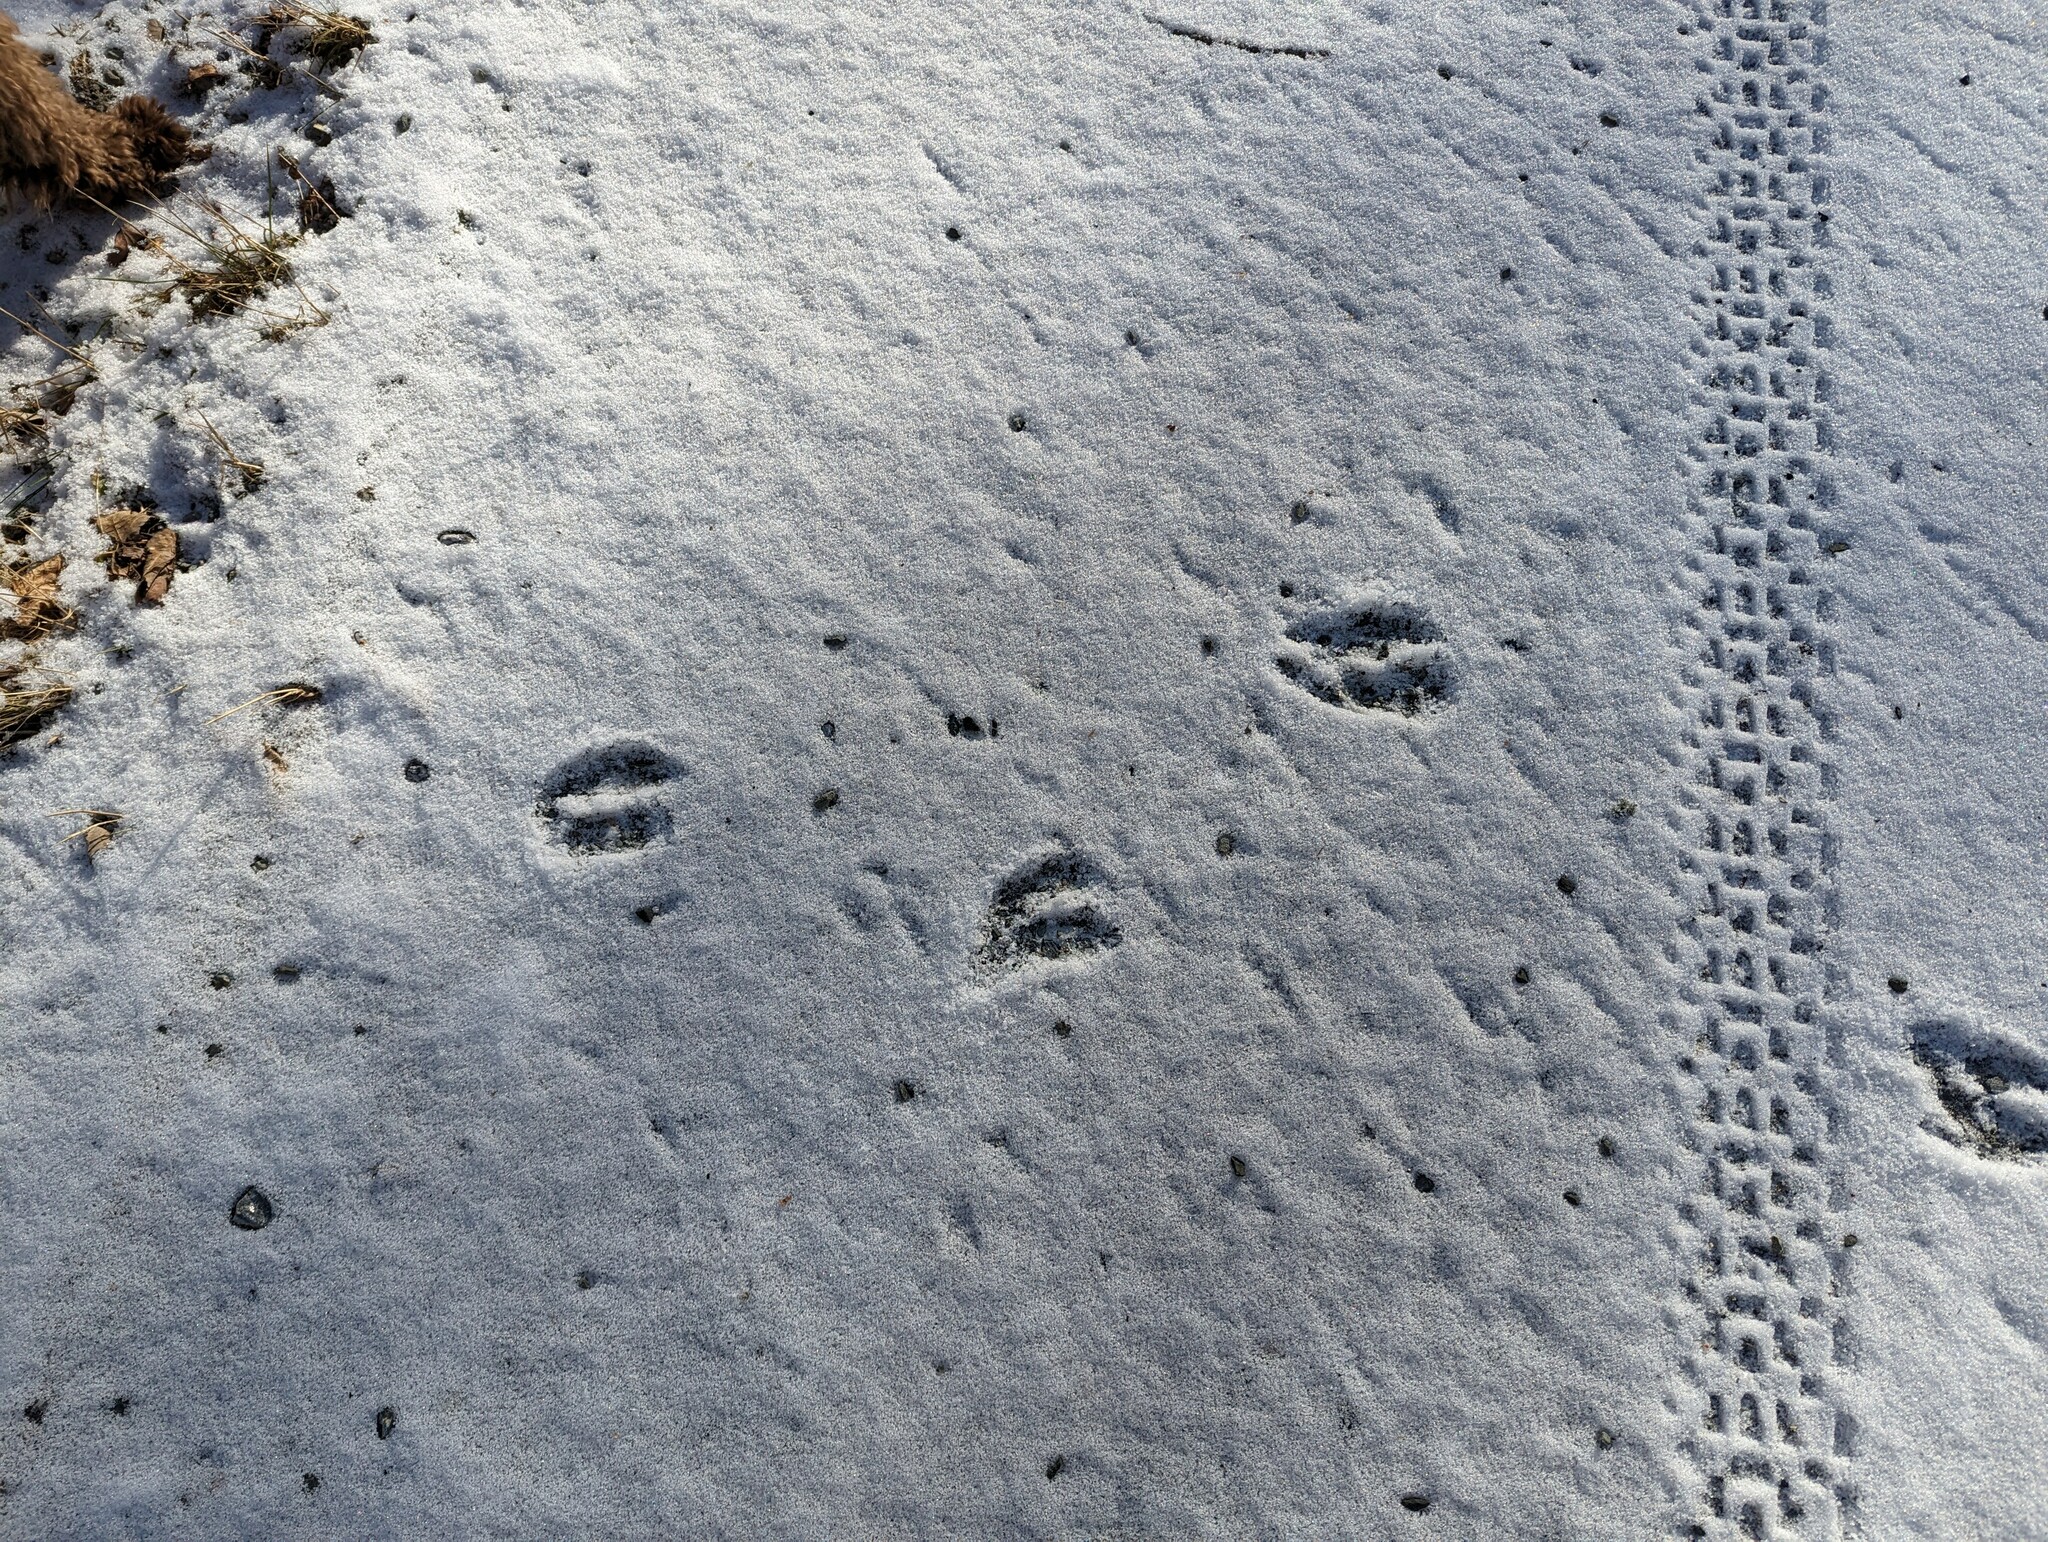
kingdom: Animalia
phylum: Chordata
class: Mammalia
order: Artiodactyla
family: Cervidae
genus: Odocoileus
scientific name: Odocoileus virginianus
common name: White-tailed deer
